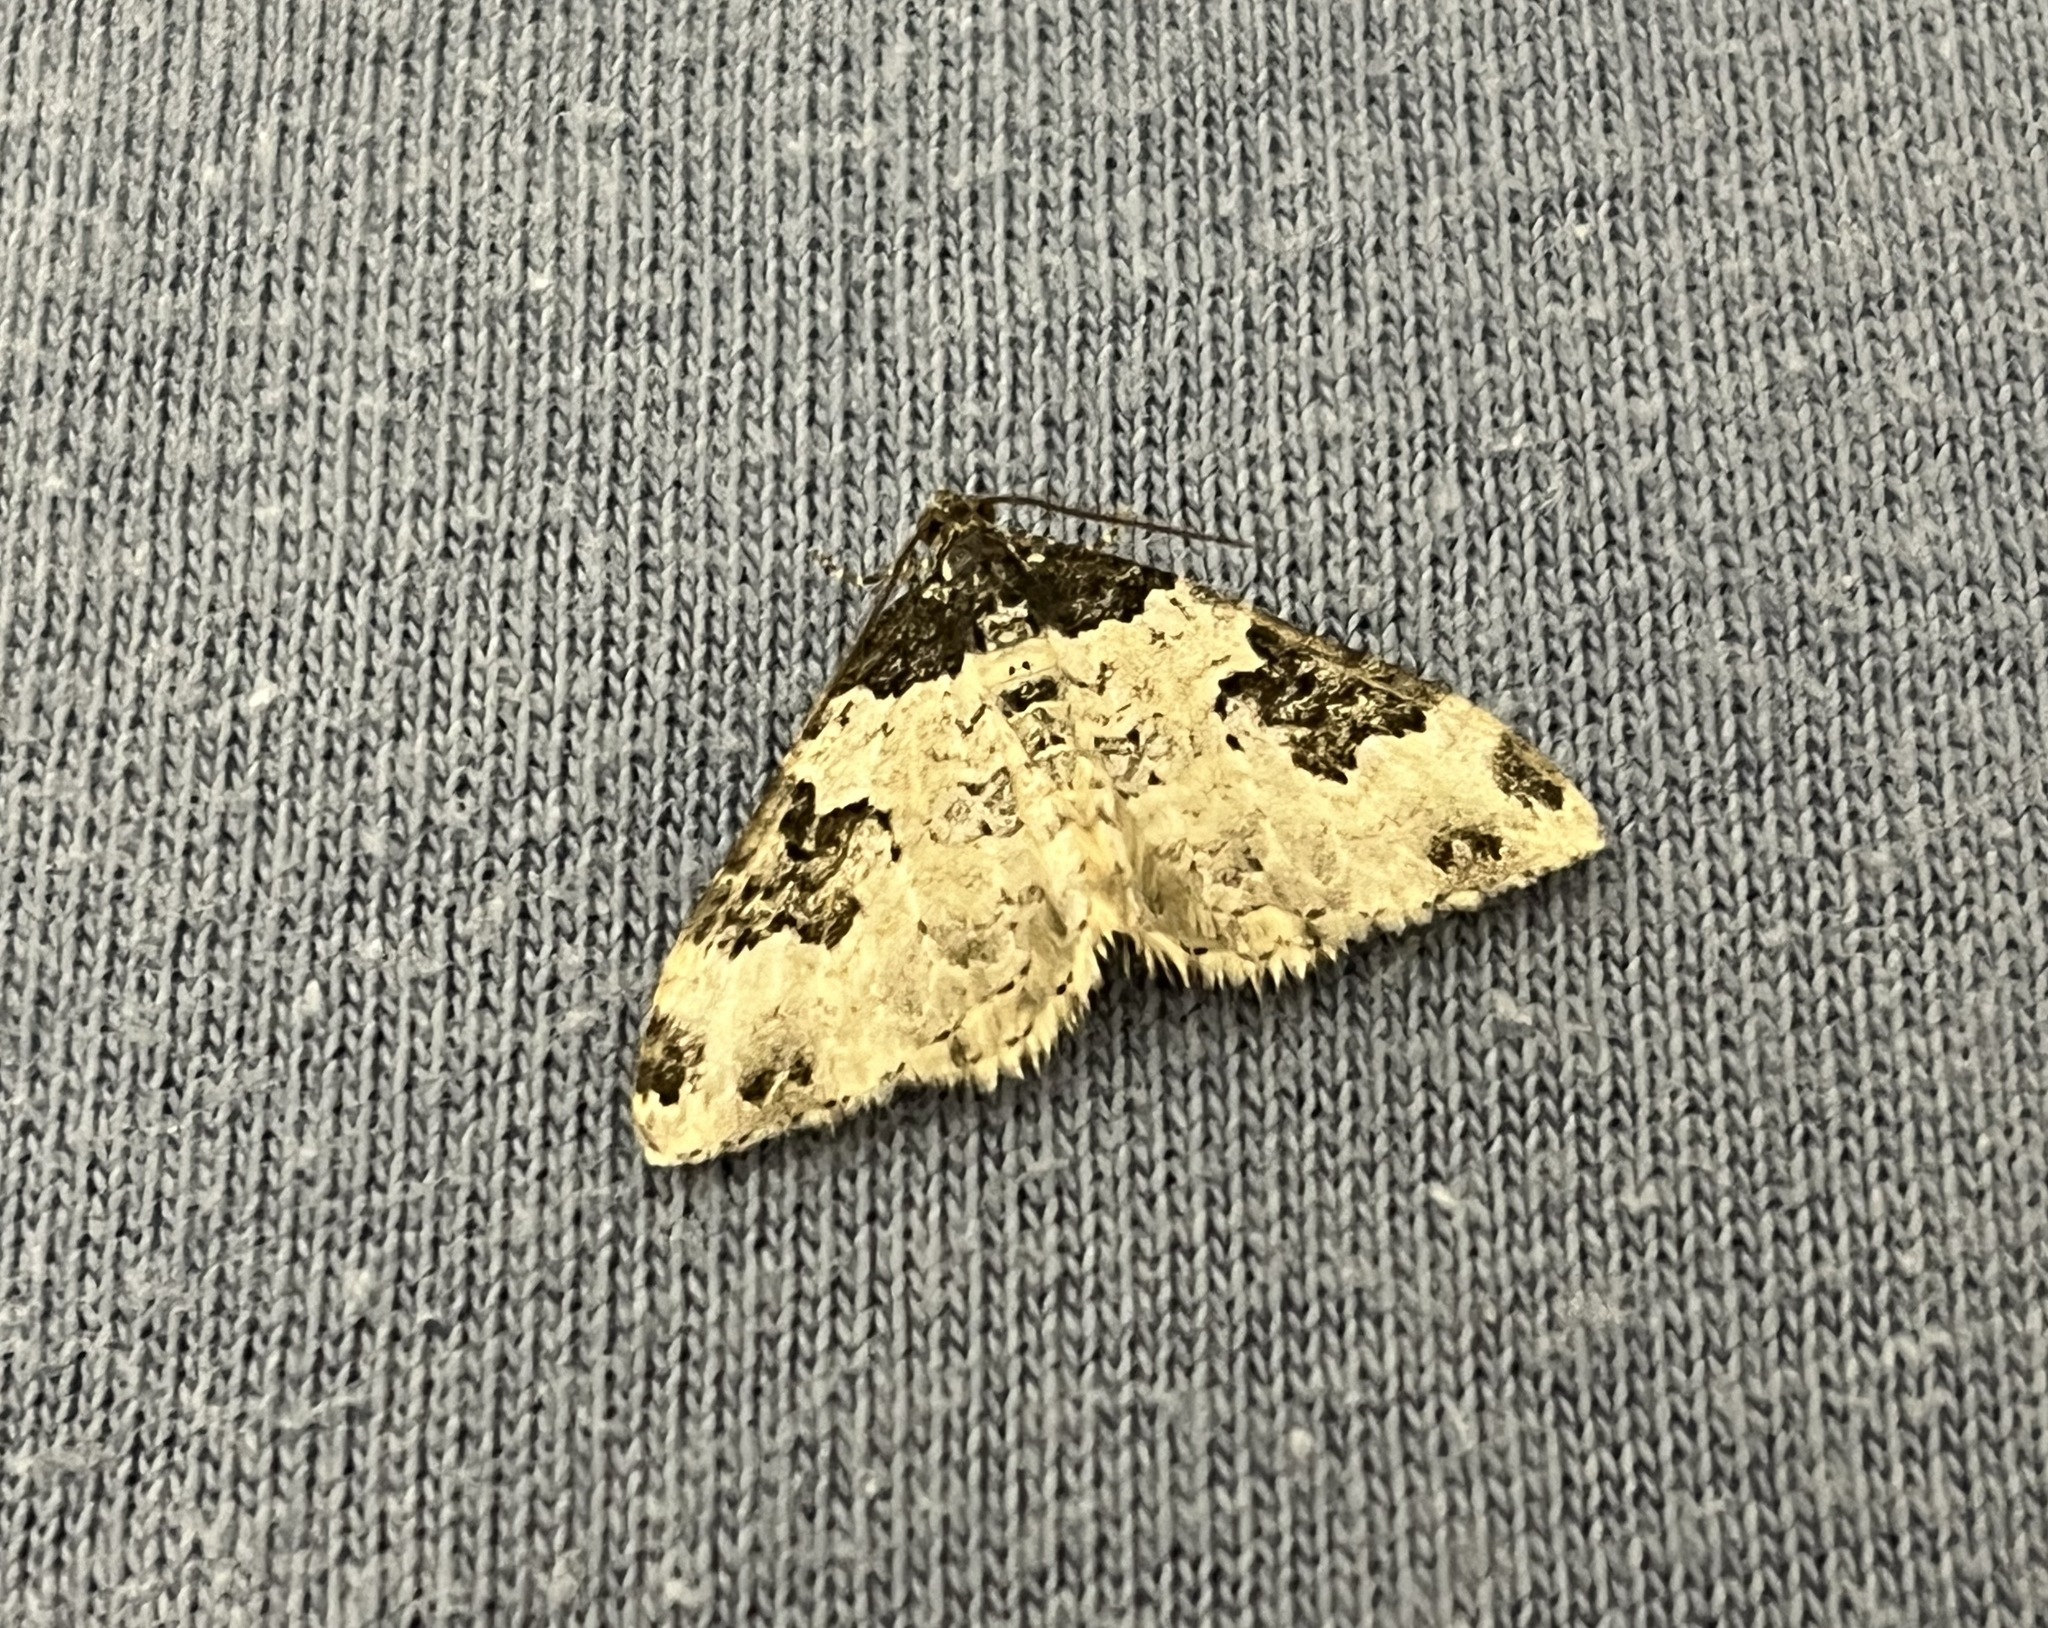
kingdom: Animalia
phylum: Arthropoda
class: Insecta
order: Lepidoptera
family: Geometridae
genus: Xanthorhoe
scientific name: Xanthorhoe fluctuata
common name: Garden carpet
